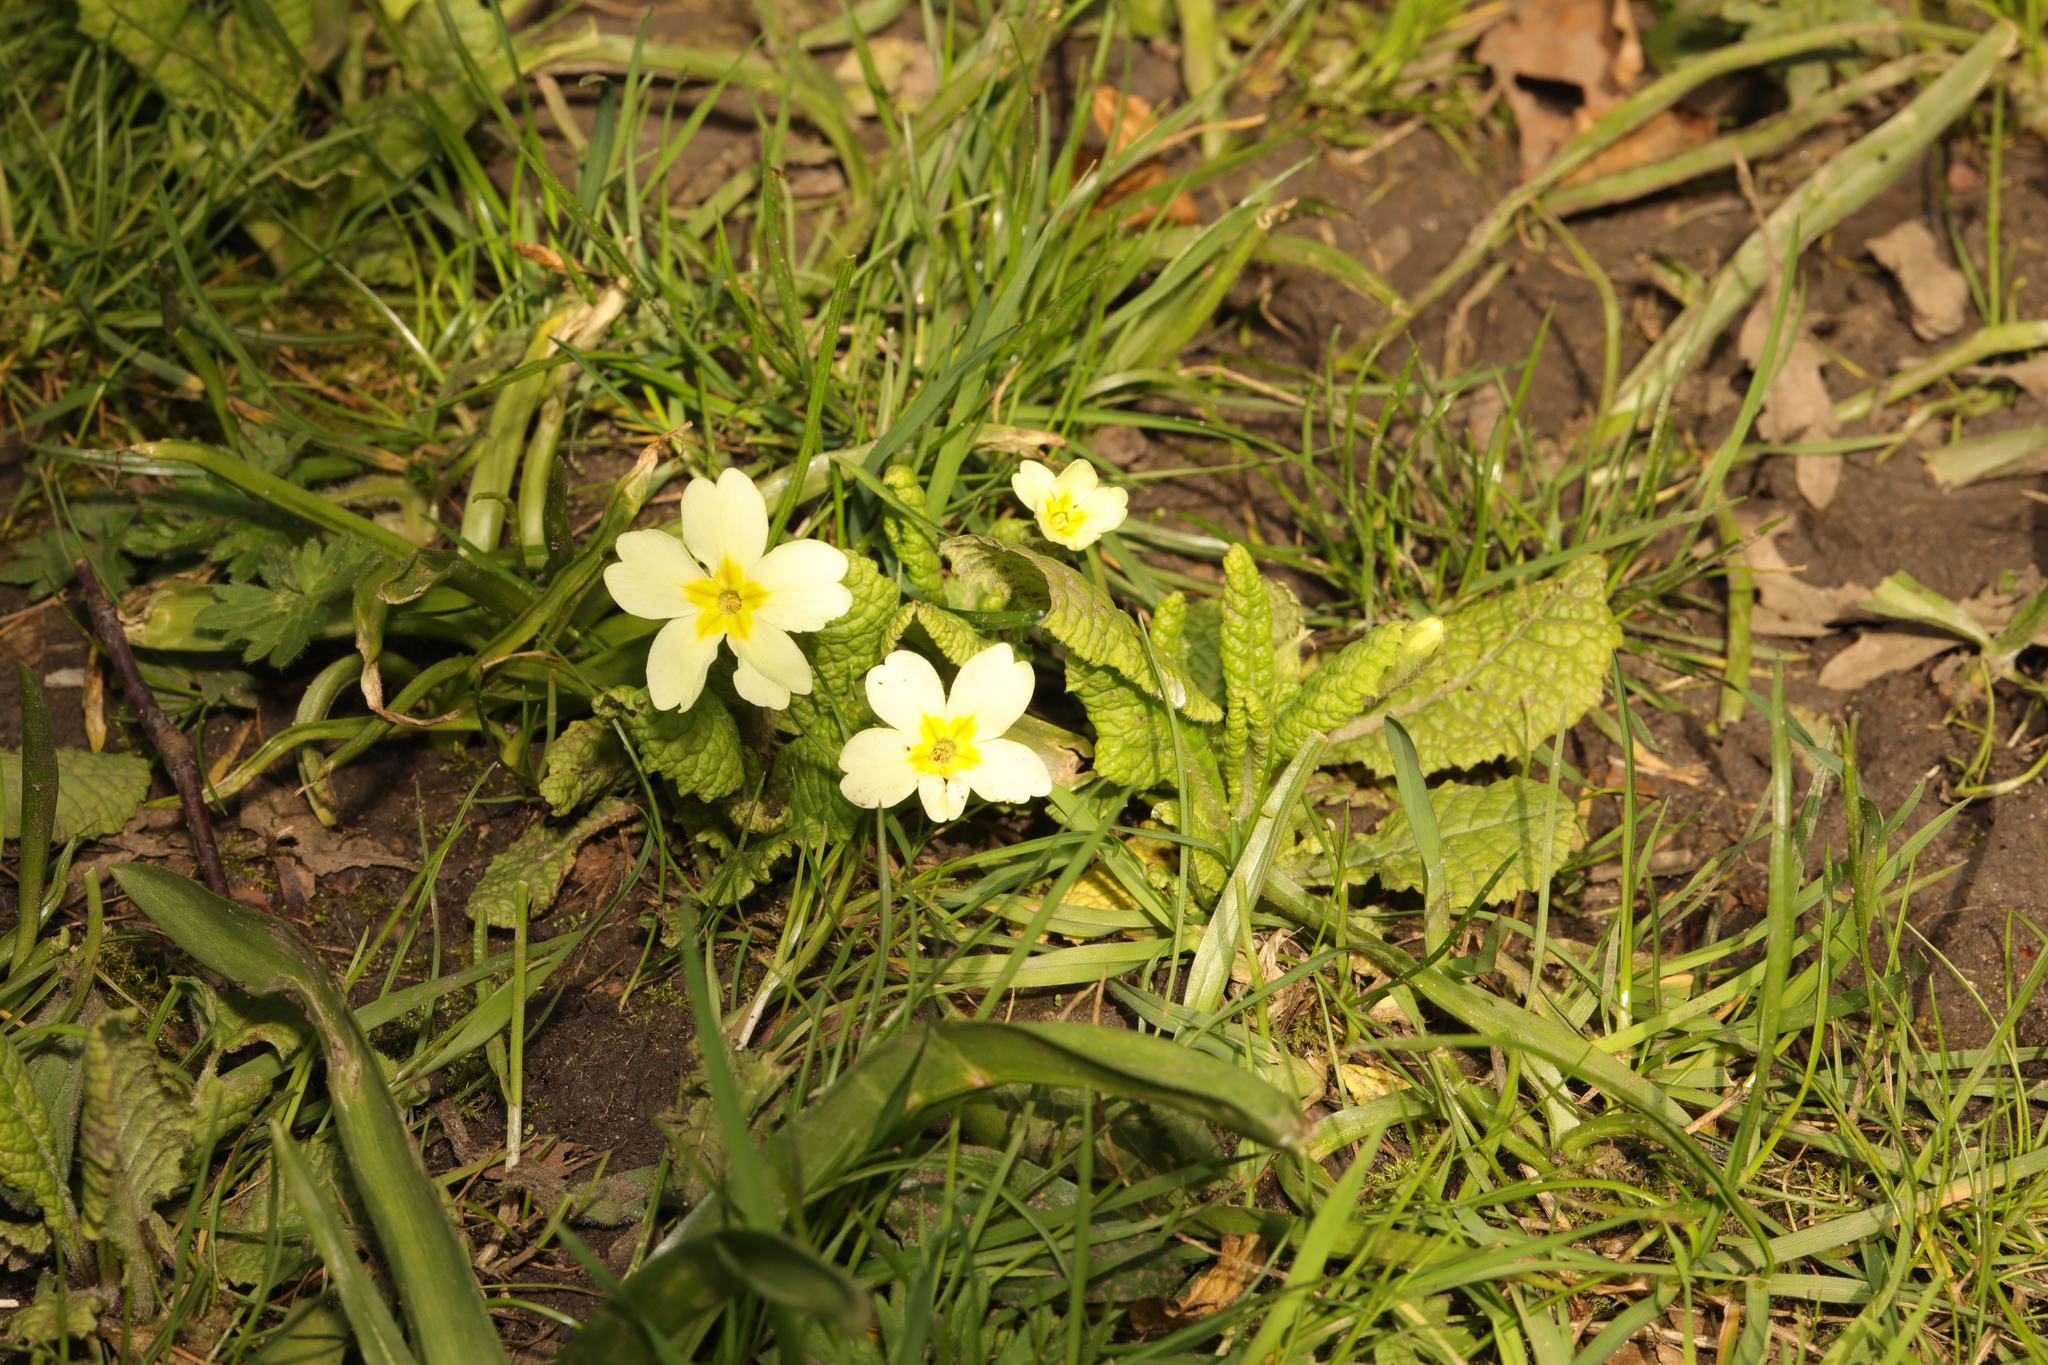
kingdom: Plantae
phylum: Tracheophyta
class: Magnoliopsida
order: Ericales
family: Primulaceae
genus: Primula
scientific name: Primula vulgaris
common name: Primrose
